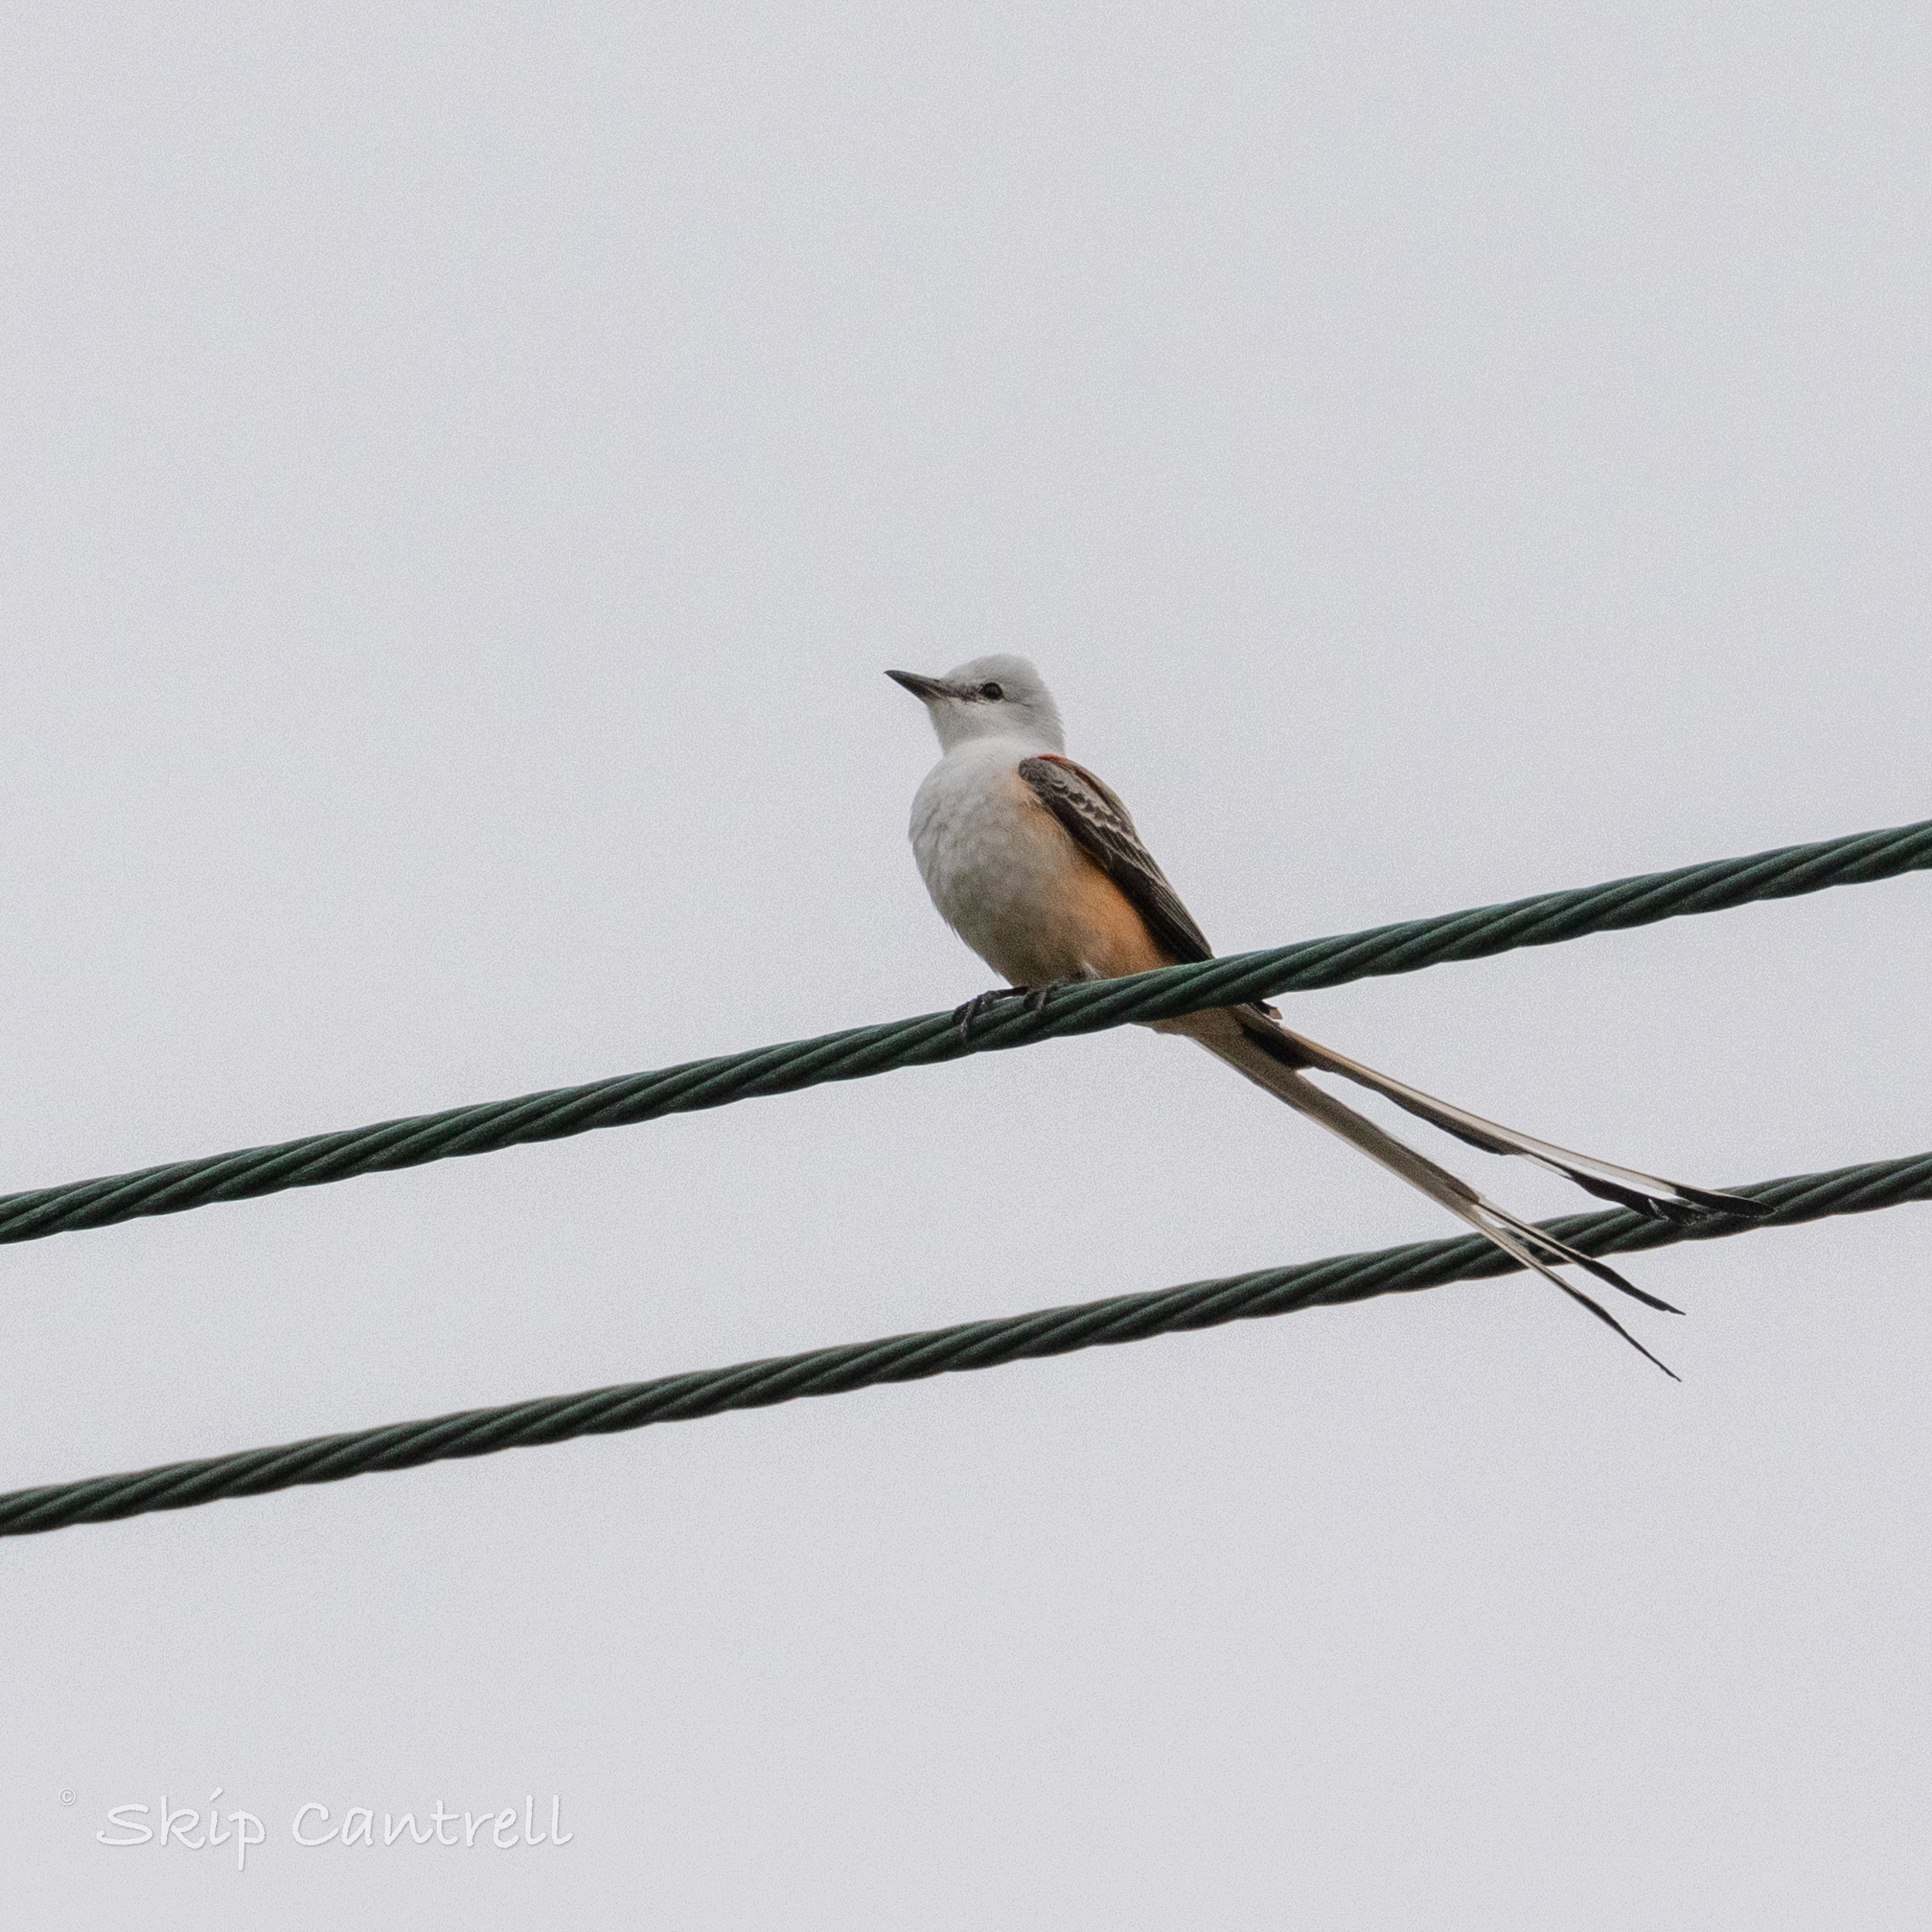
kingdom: Animalia
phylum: Chordata
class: Aves
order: Passeriformes
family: Tyrannidae
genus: Tyrannus
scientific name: Tyrannus forficatus
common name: Scissor-tailed flycatcher
